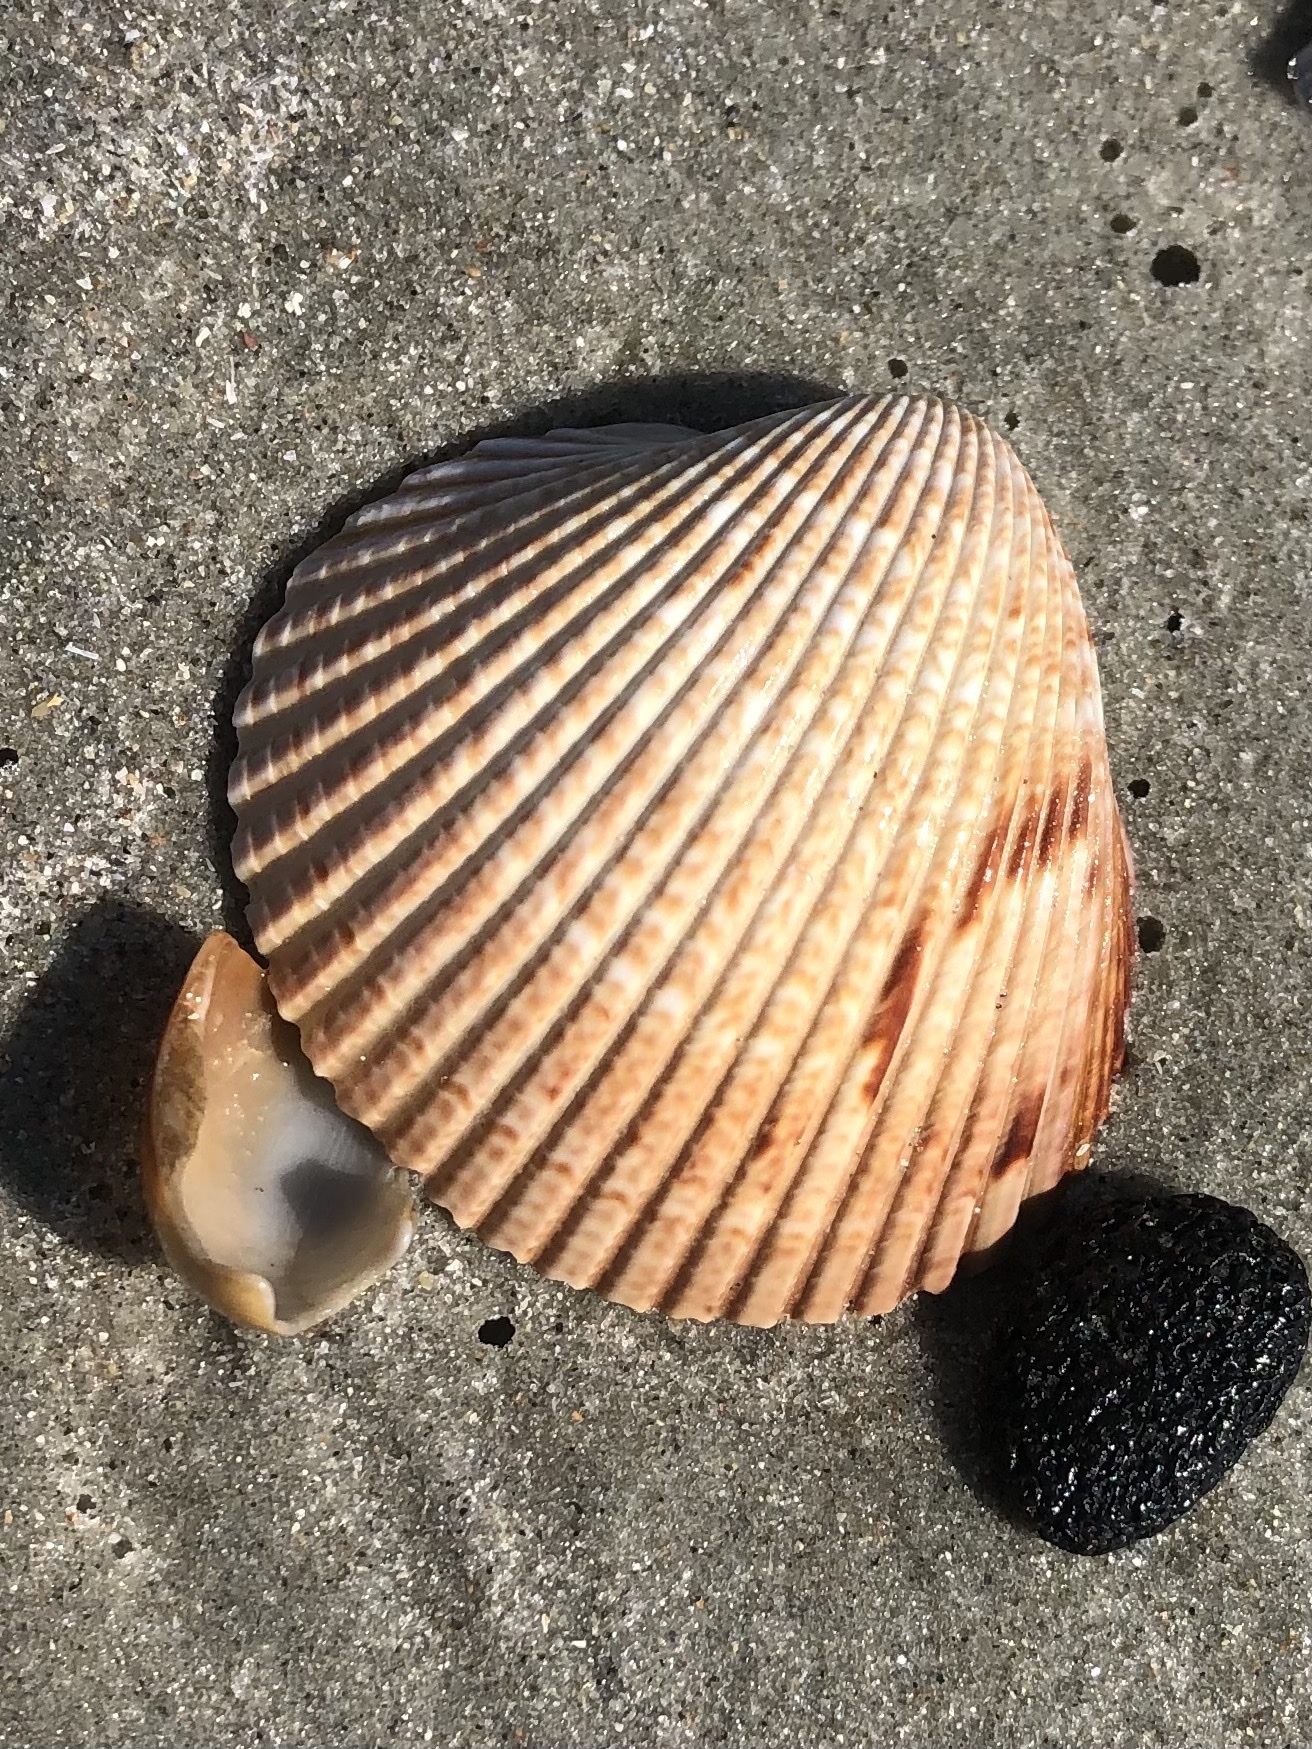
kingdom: Animalia
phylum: Mollusca
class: Bivalvia
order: Cardiida
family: Cardiidae
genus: Dinocardium
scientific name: Dinocardium robustum
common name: Atlantic giant cockle
